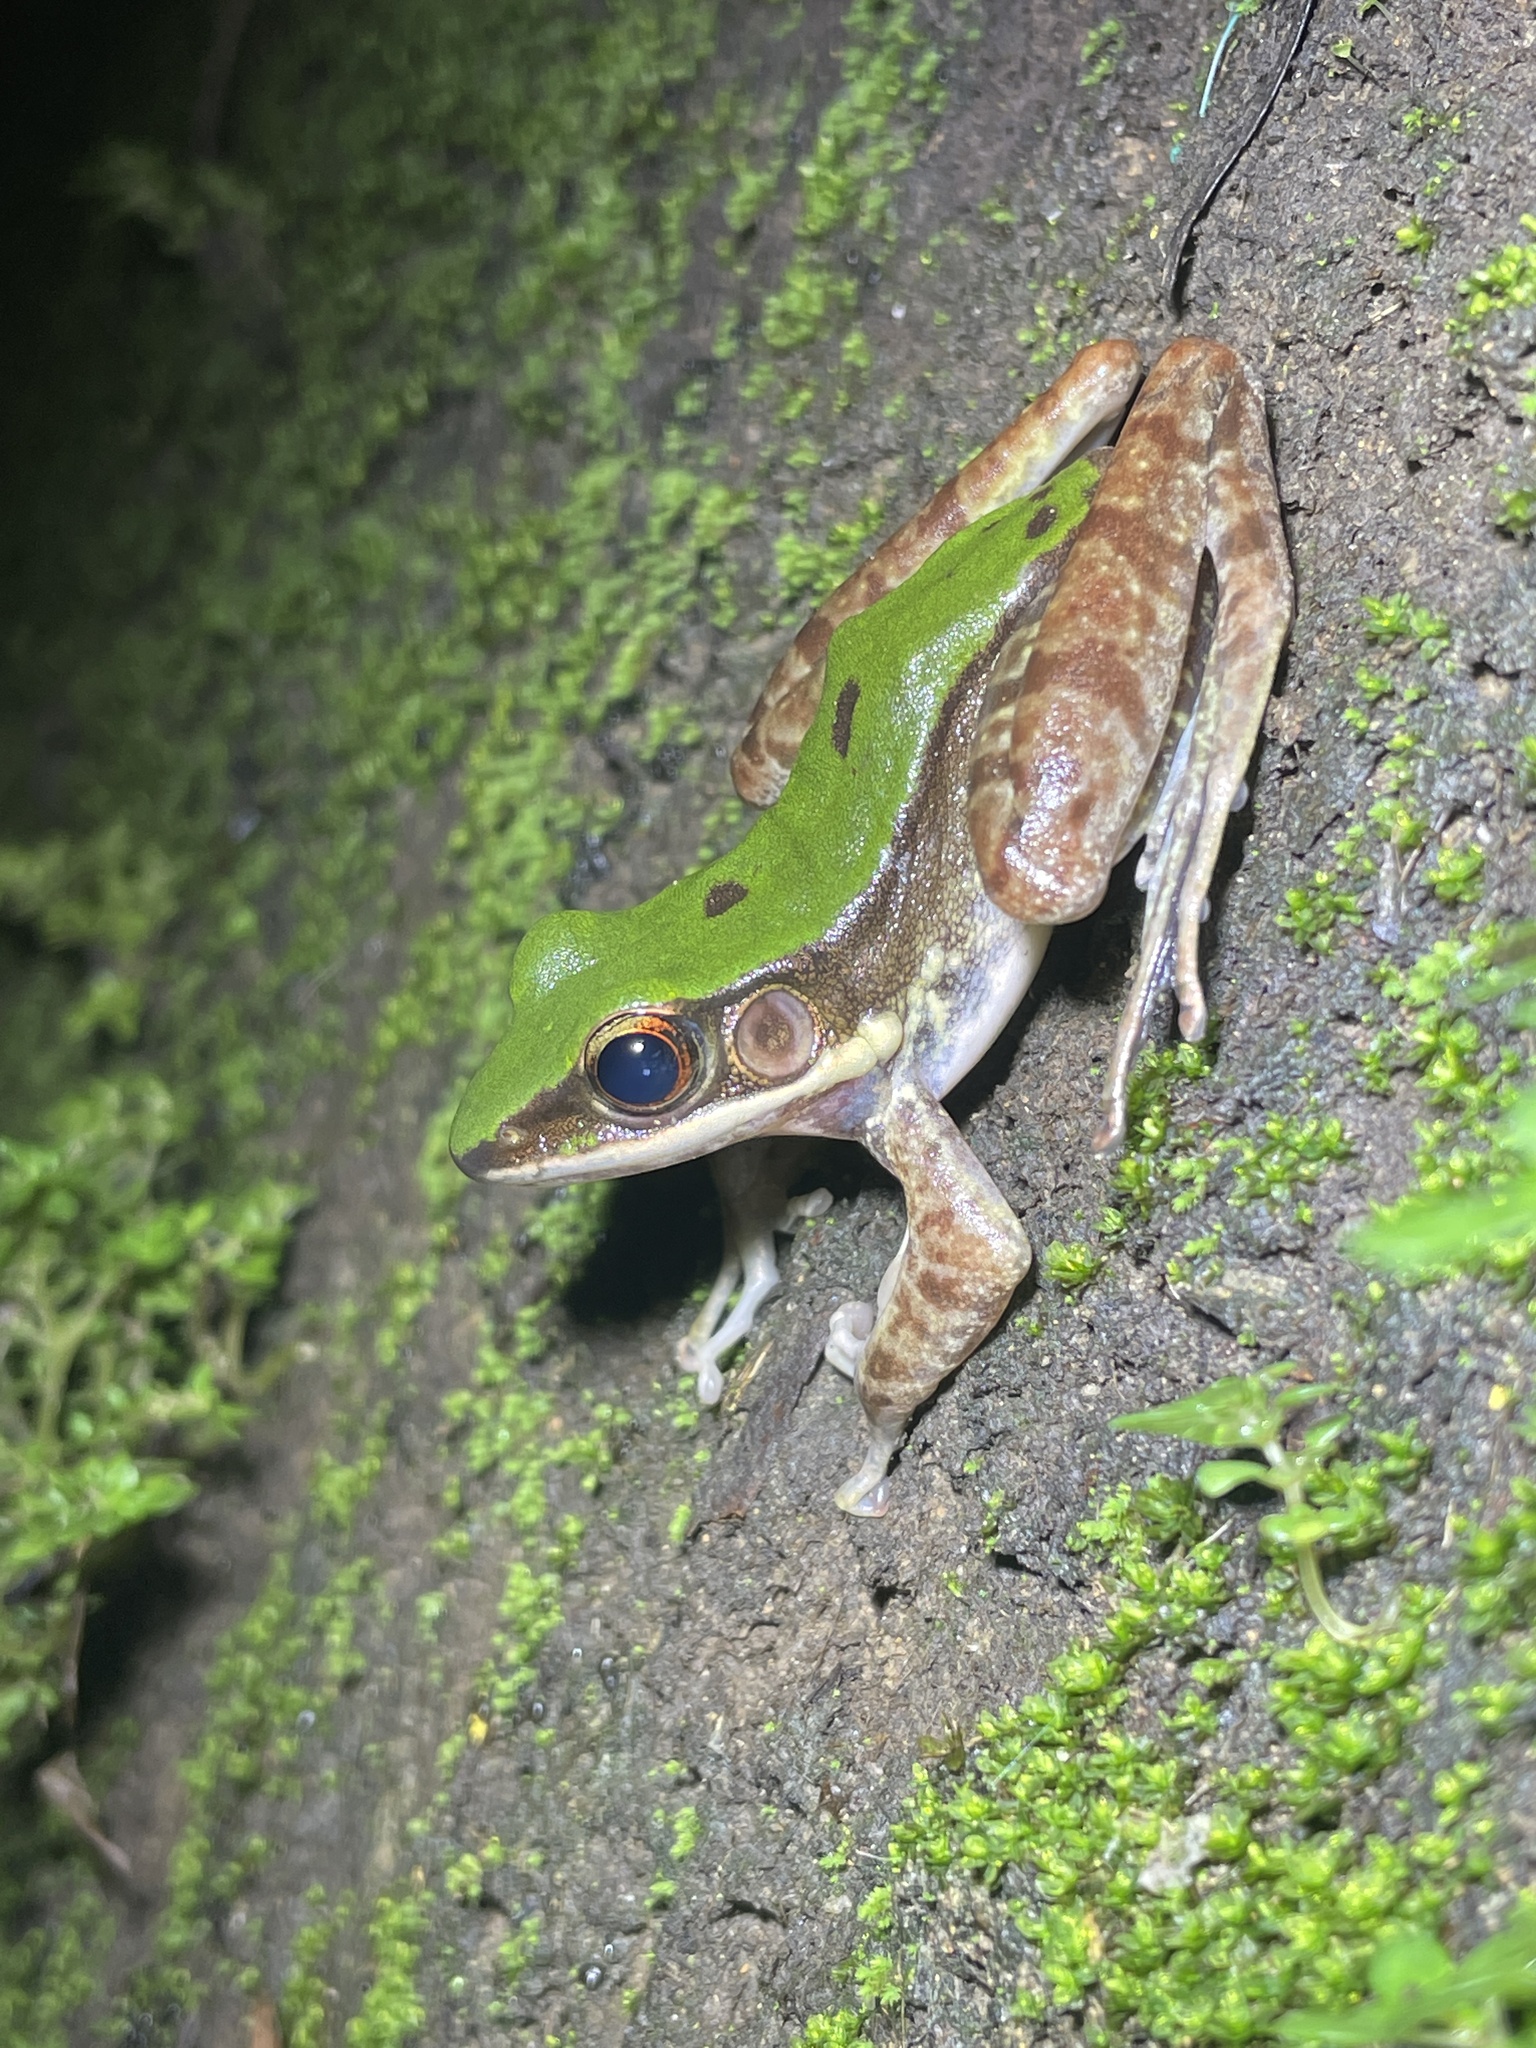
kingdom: Animalia
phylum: Chordata
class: Amphibia
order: Anura
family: Ranidae
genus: Odorrana
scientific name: Odorrana graminea
